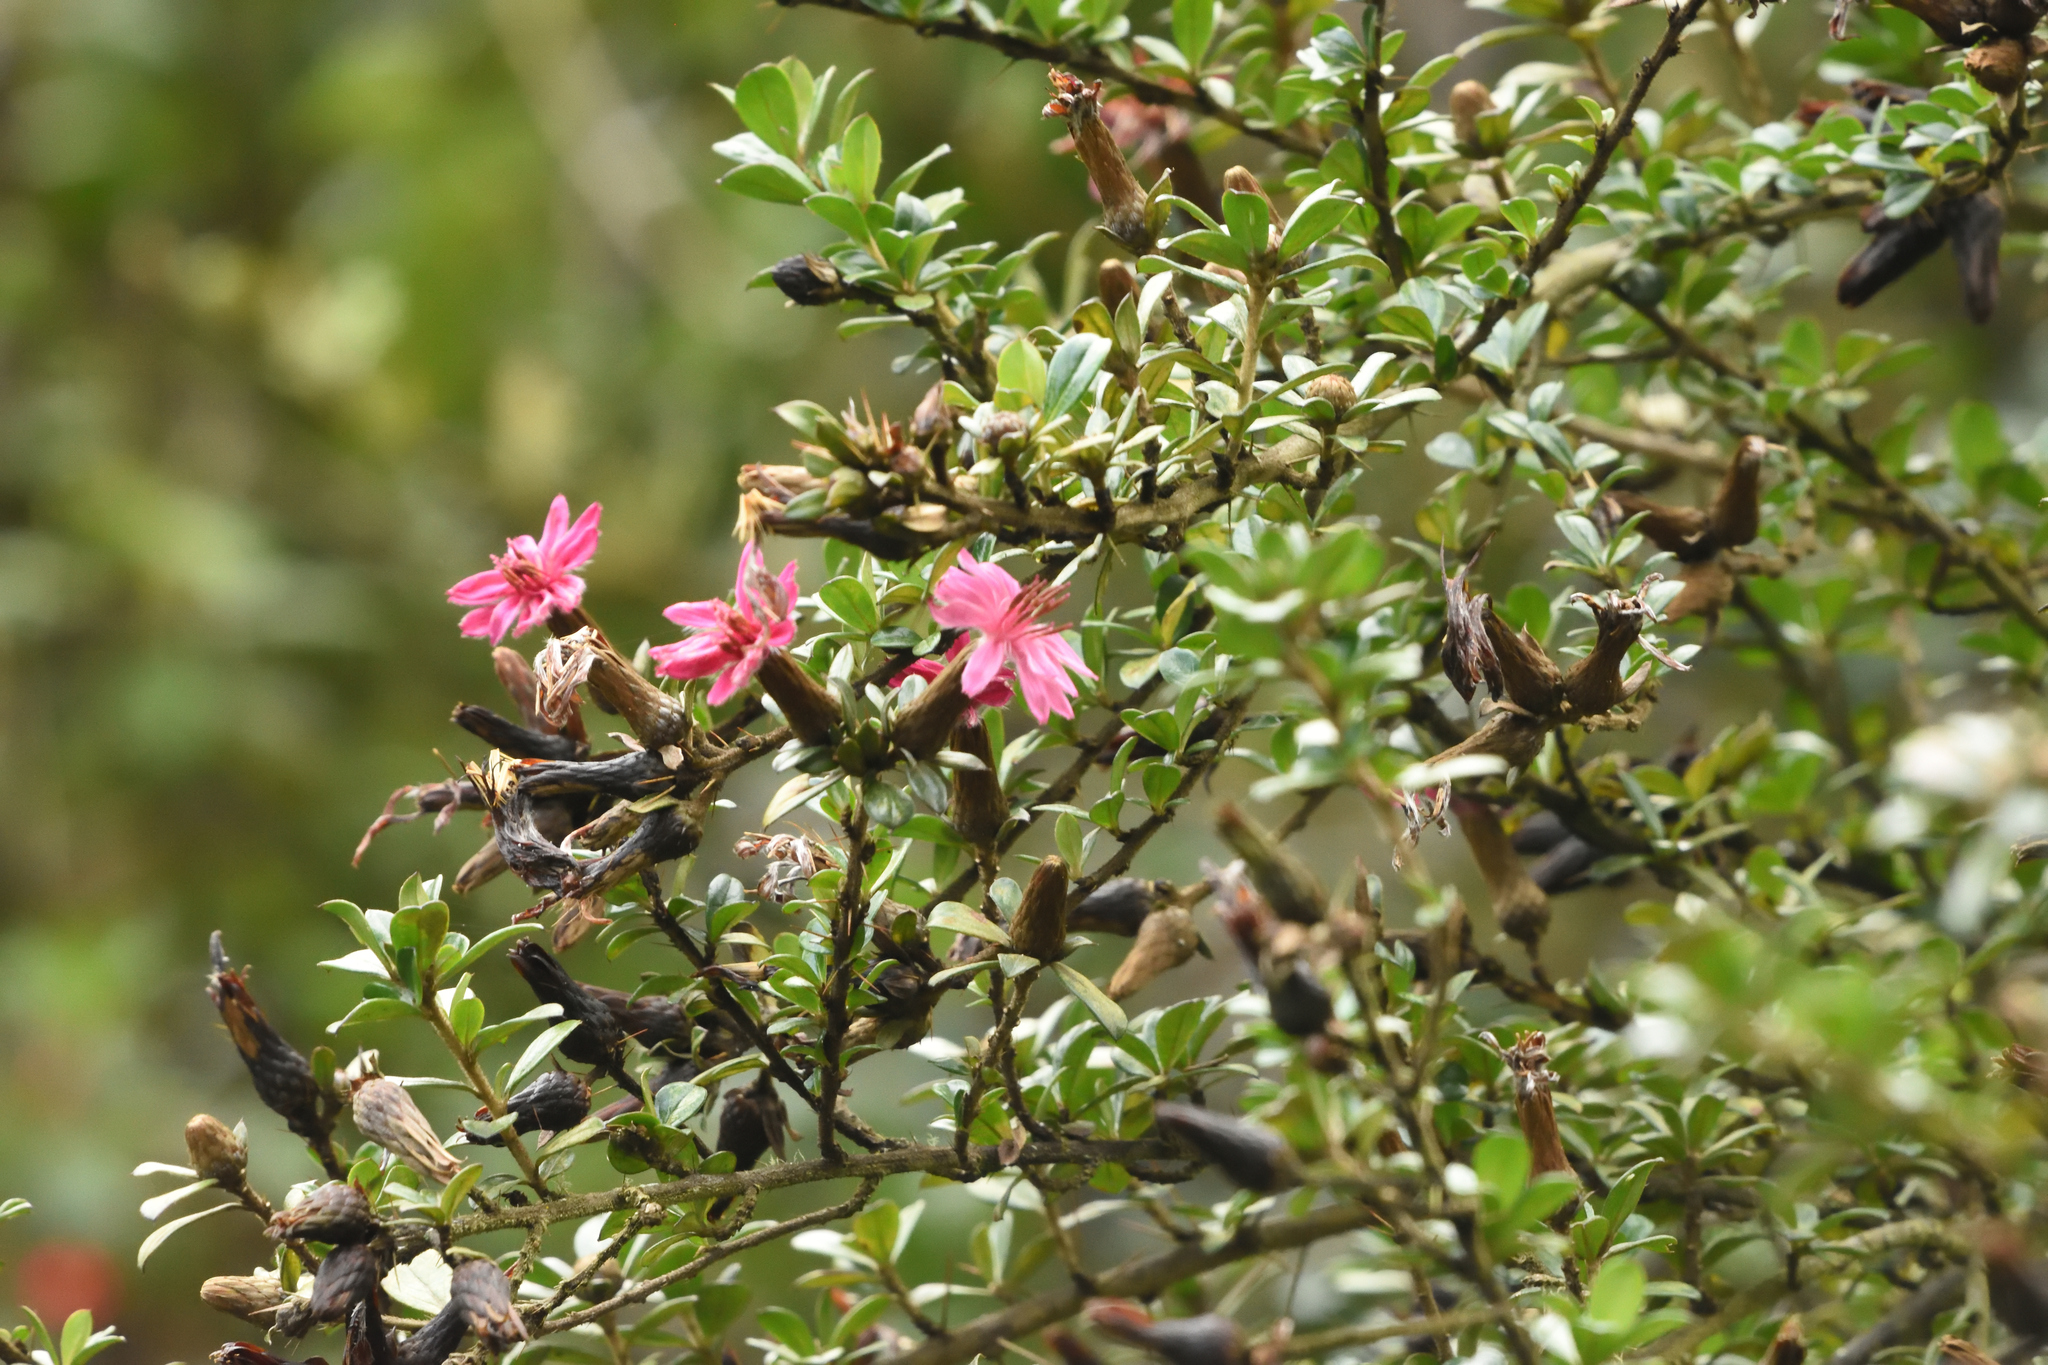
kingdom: Plantae
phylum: Tracheophyta
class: Magnoliopsida
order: Asterales
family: Asteraceae
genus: Barnadesia
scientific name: Barnadesia arborea
